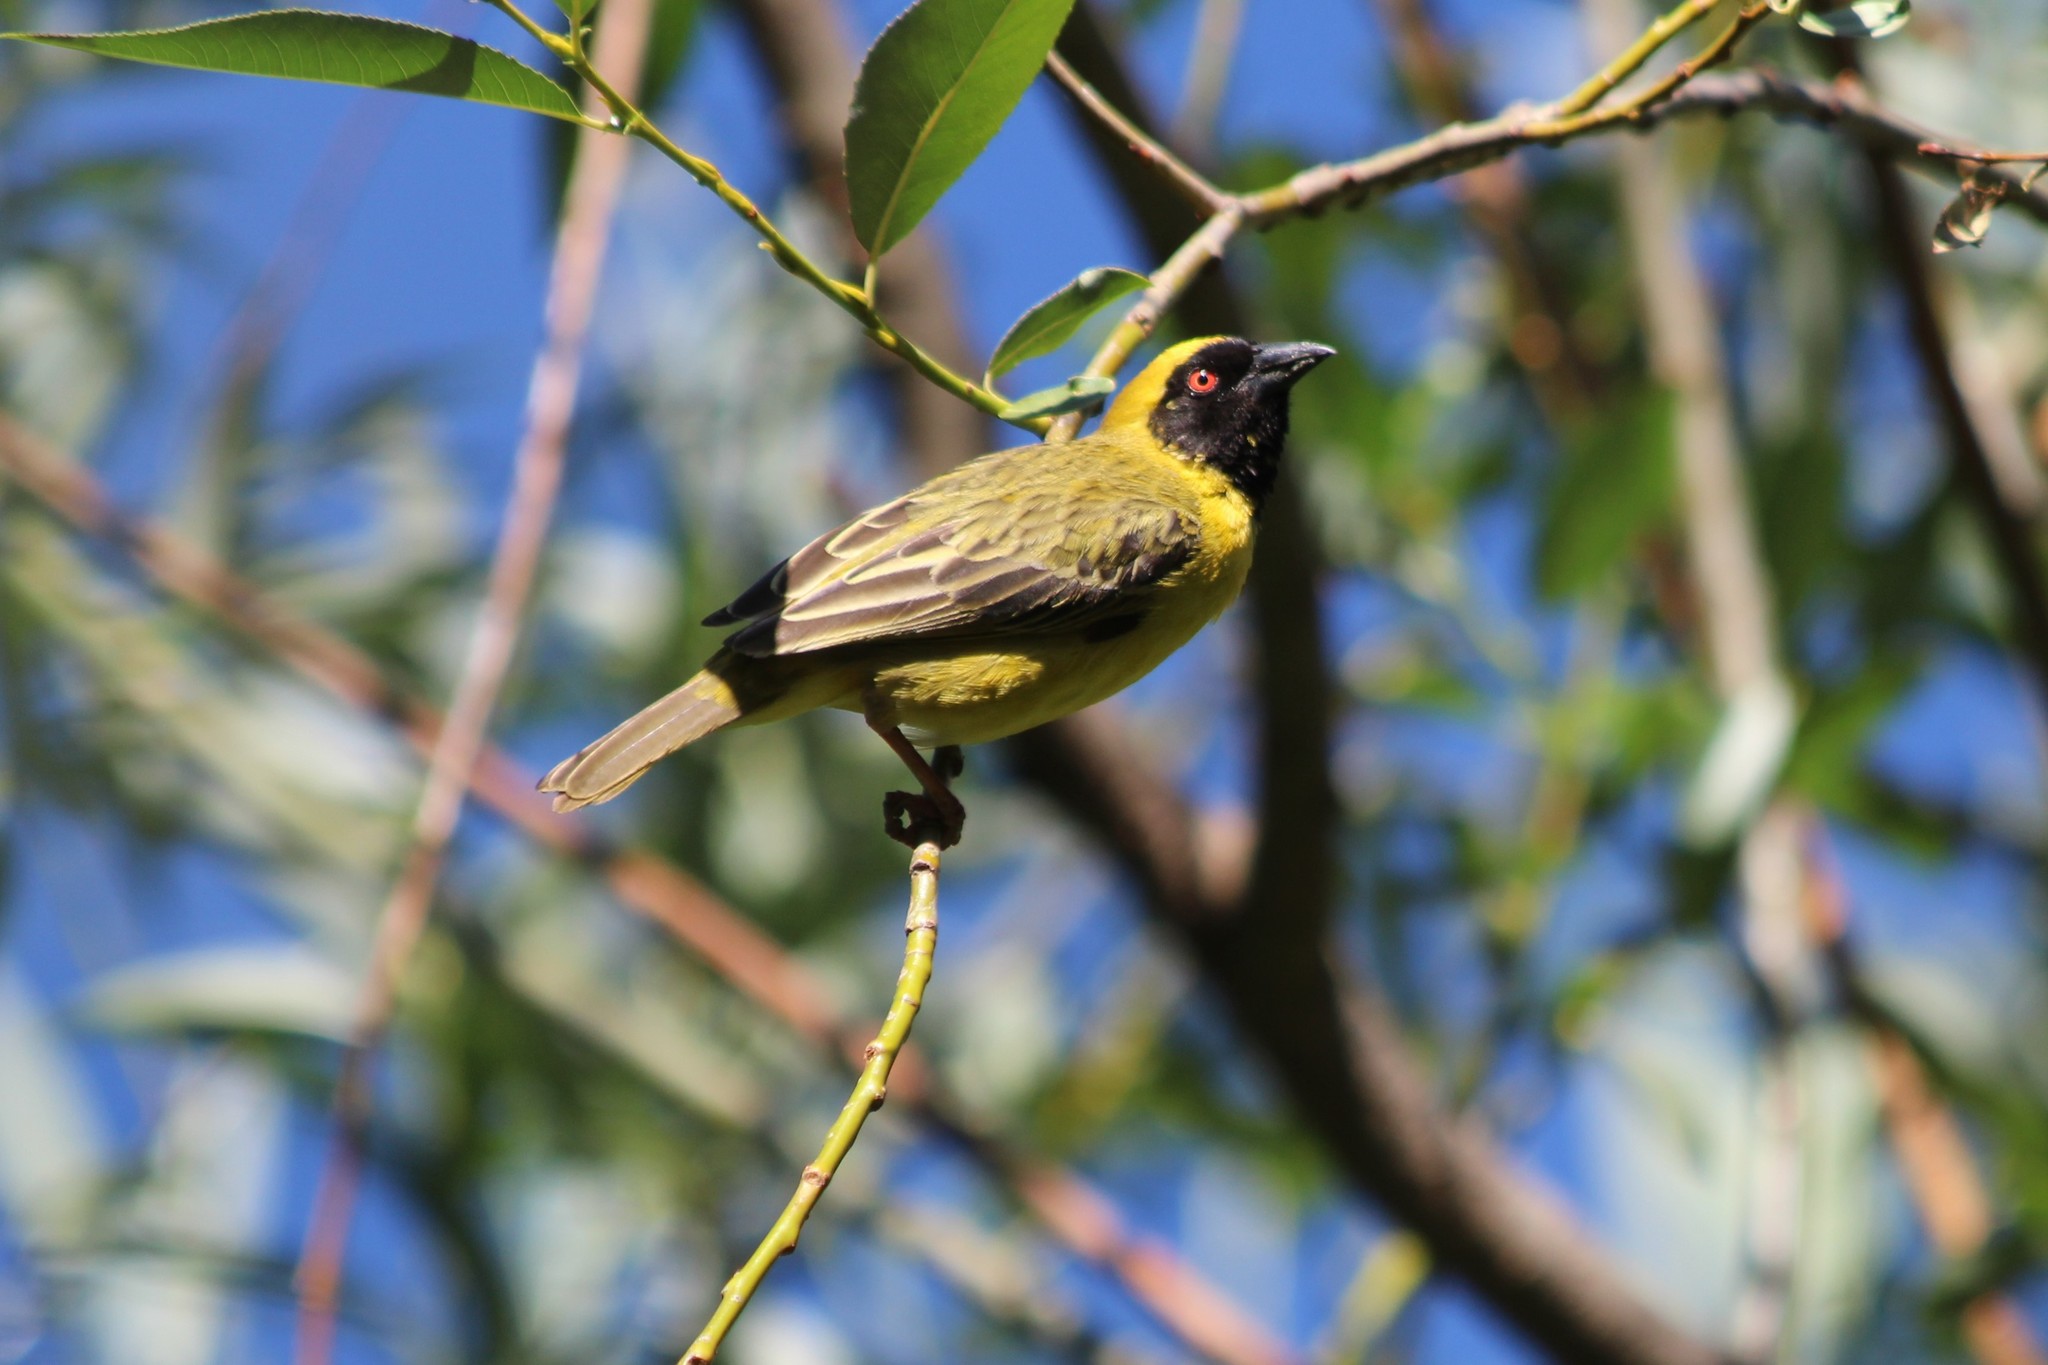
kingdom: Animalia
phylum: Chordata
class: Aves
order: Passeriformes
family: Ploceidae
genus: Ploceus
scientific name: Ploceus velatus
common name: Southern masked weaver
